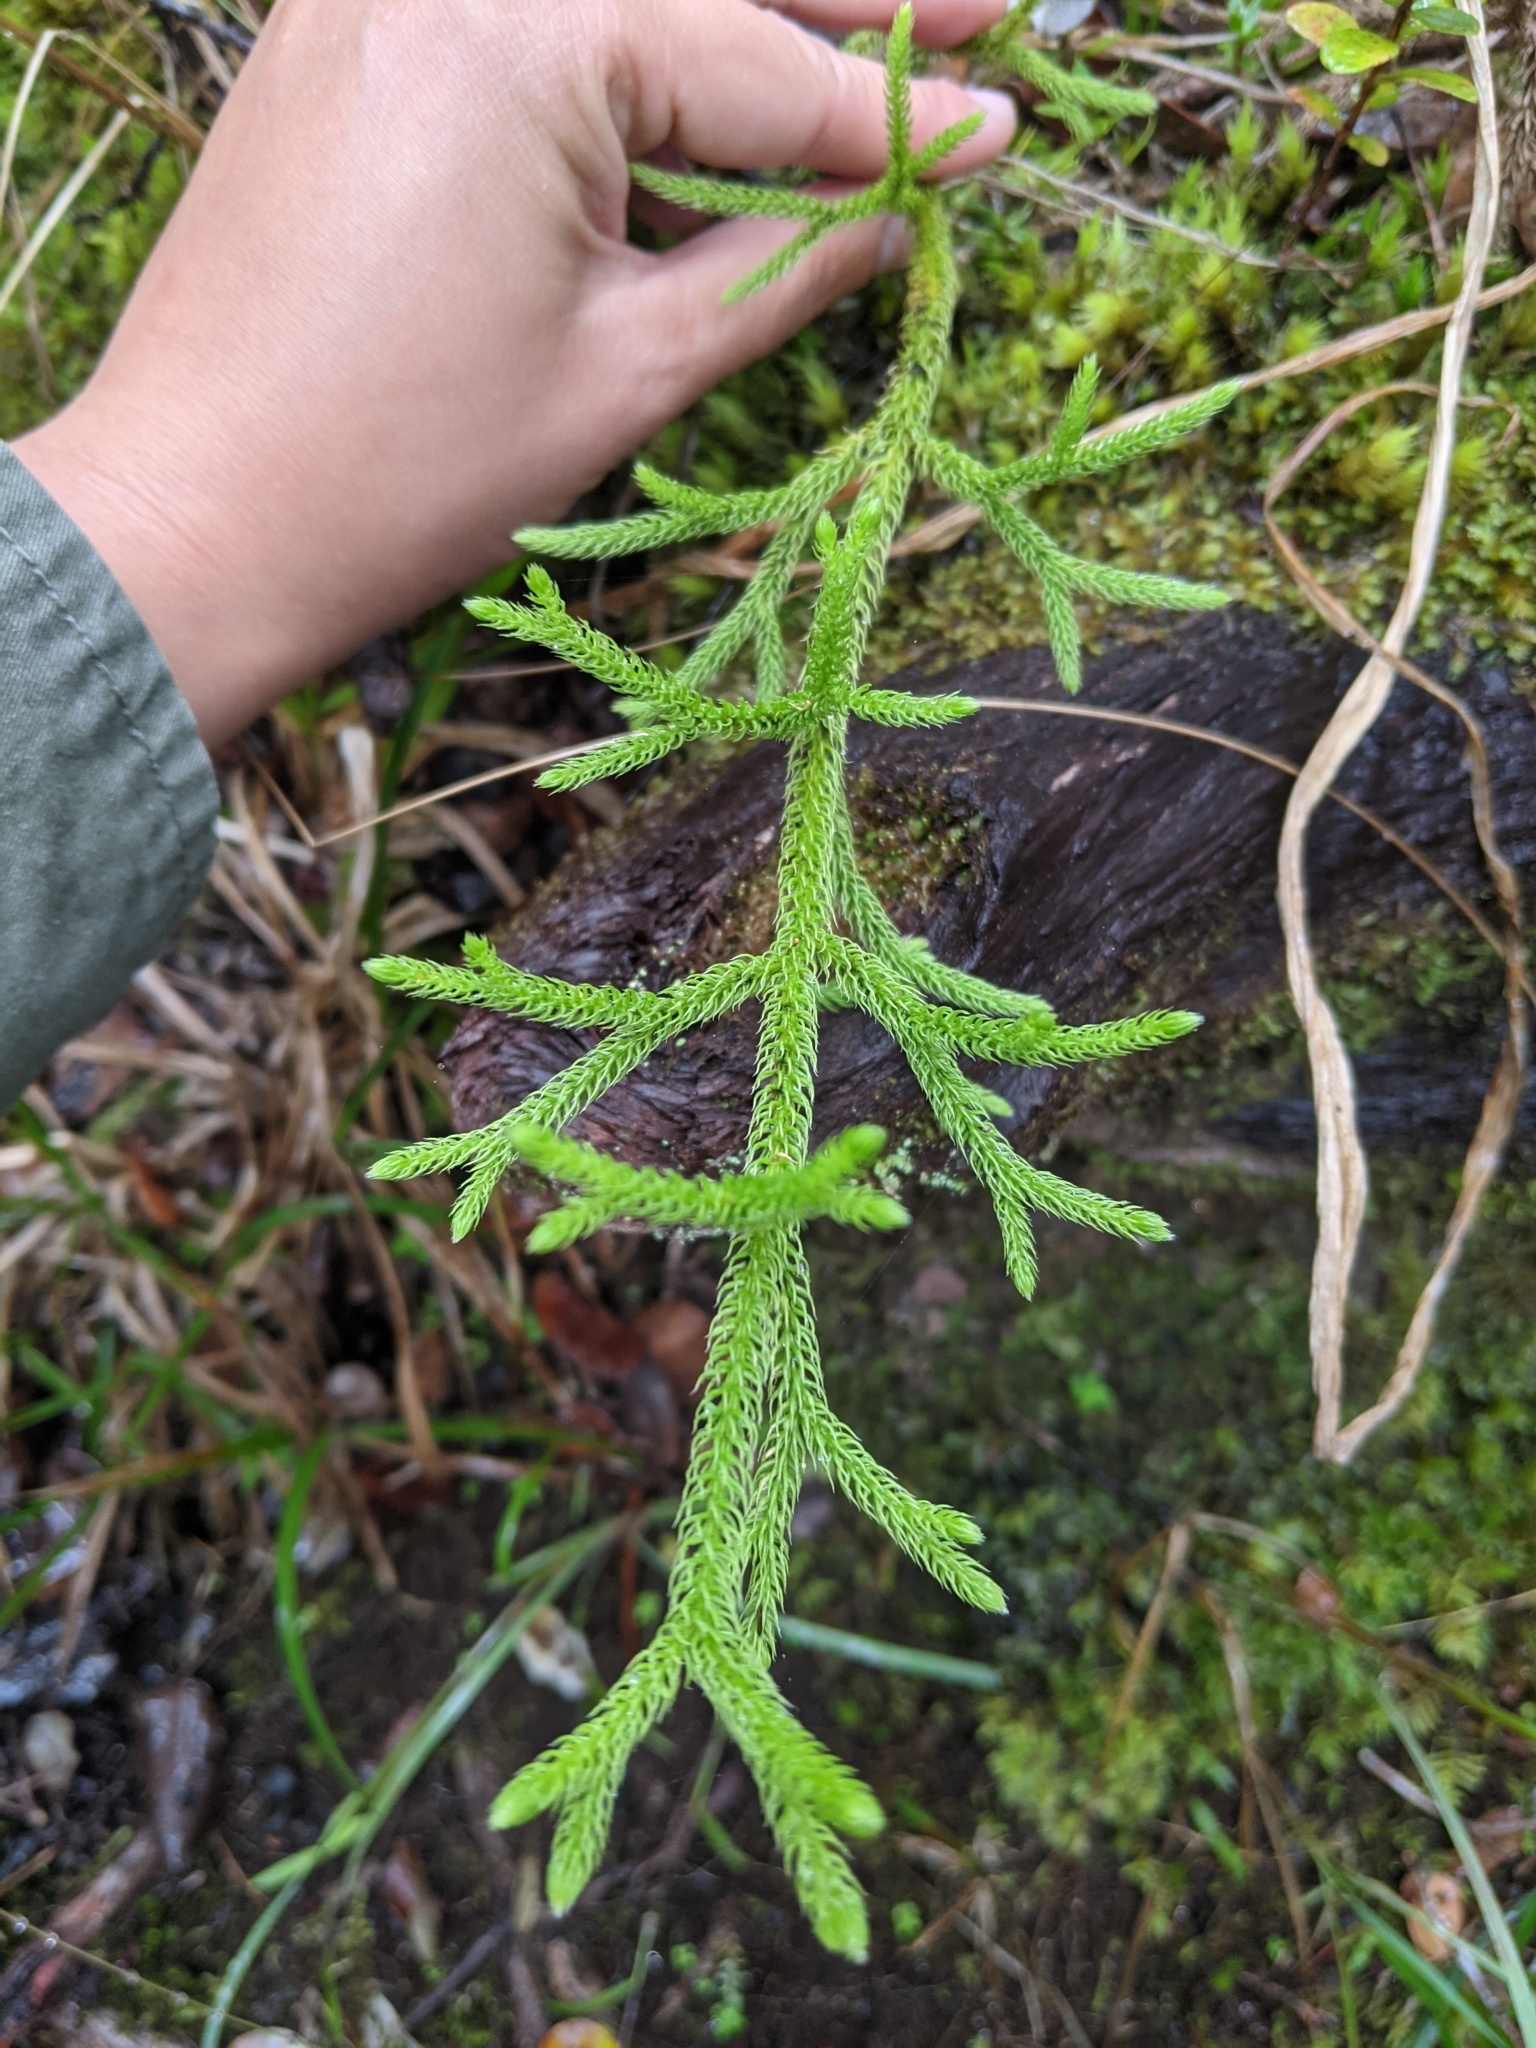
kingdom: Plantae
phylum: Tracheophyta
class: Lycopodiopsida
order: Lycopodiales
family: Lycopodiaceae
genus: Palhinhaea
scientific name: Palhinhaea cernua
